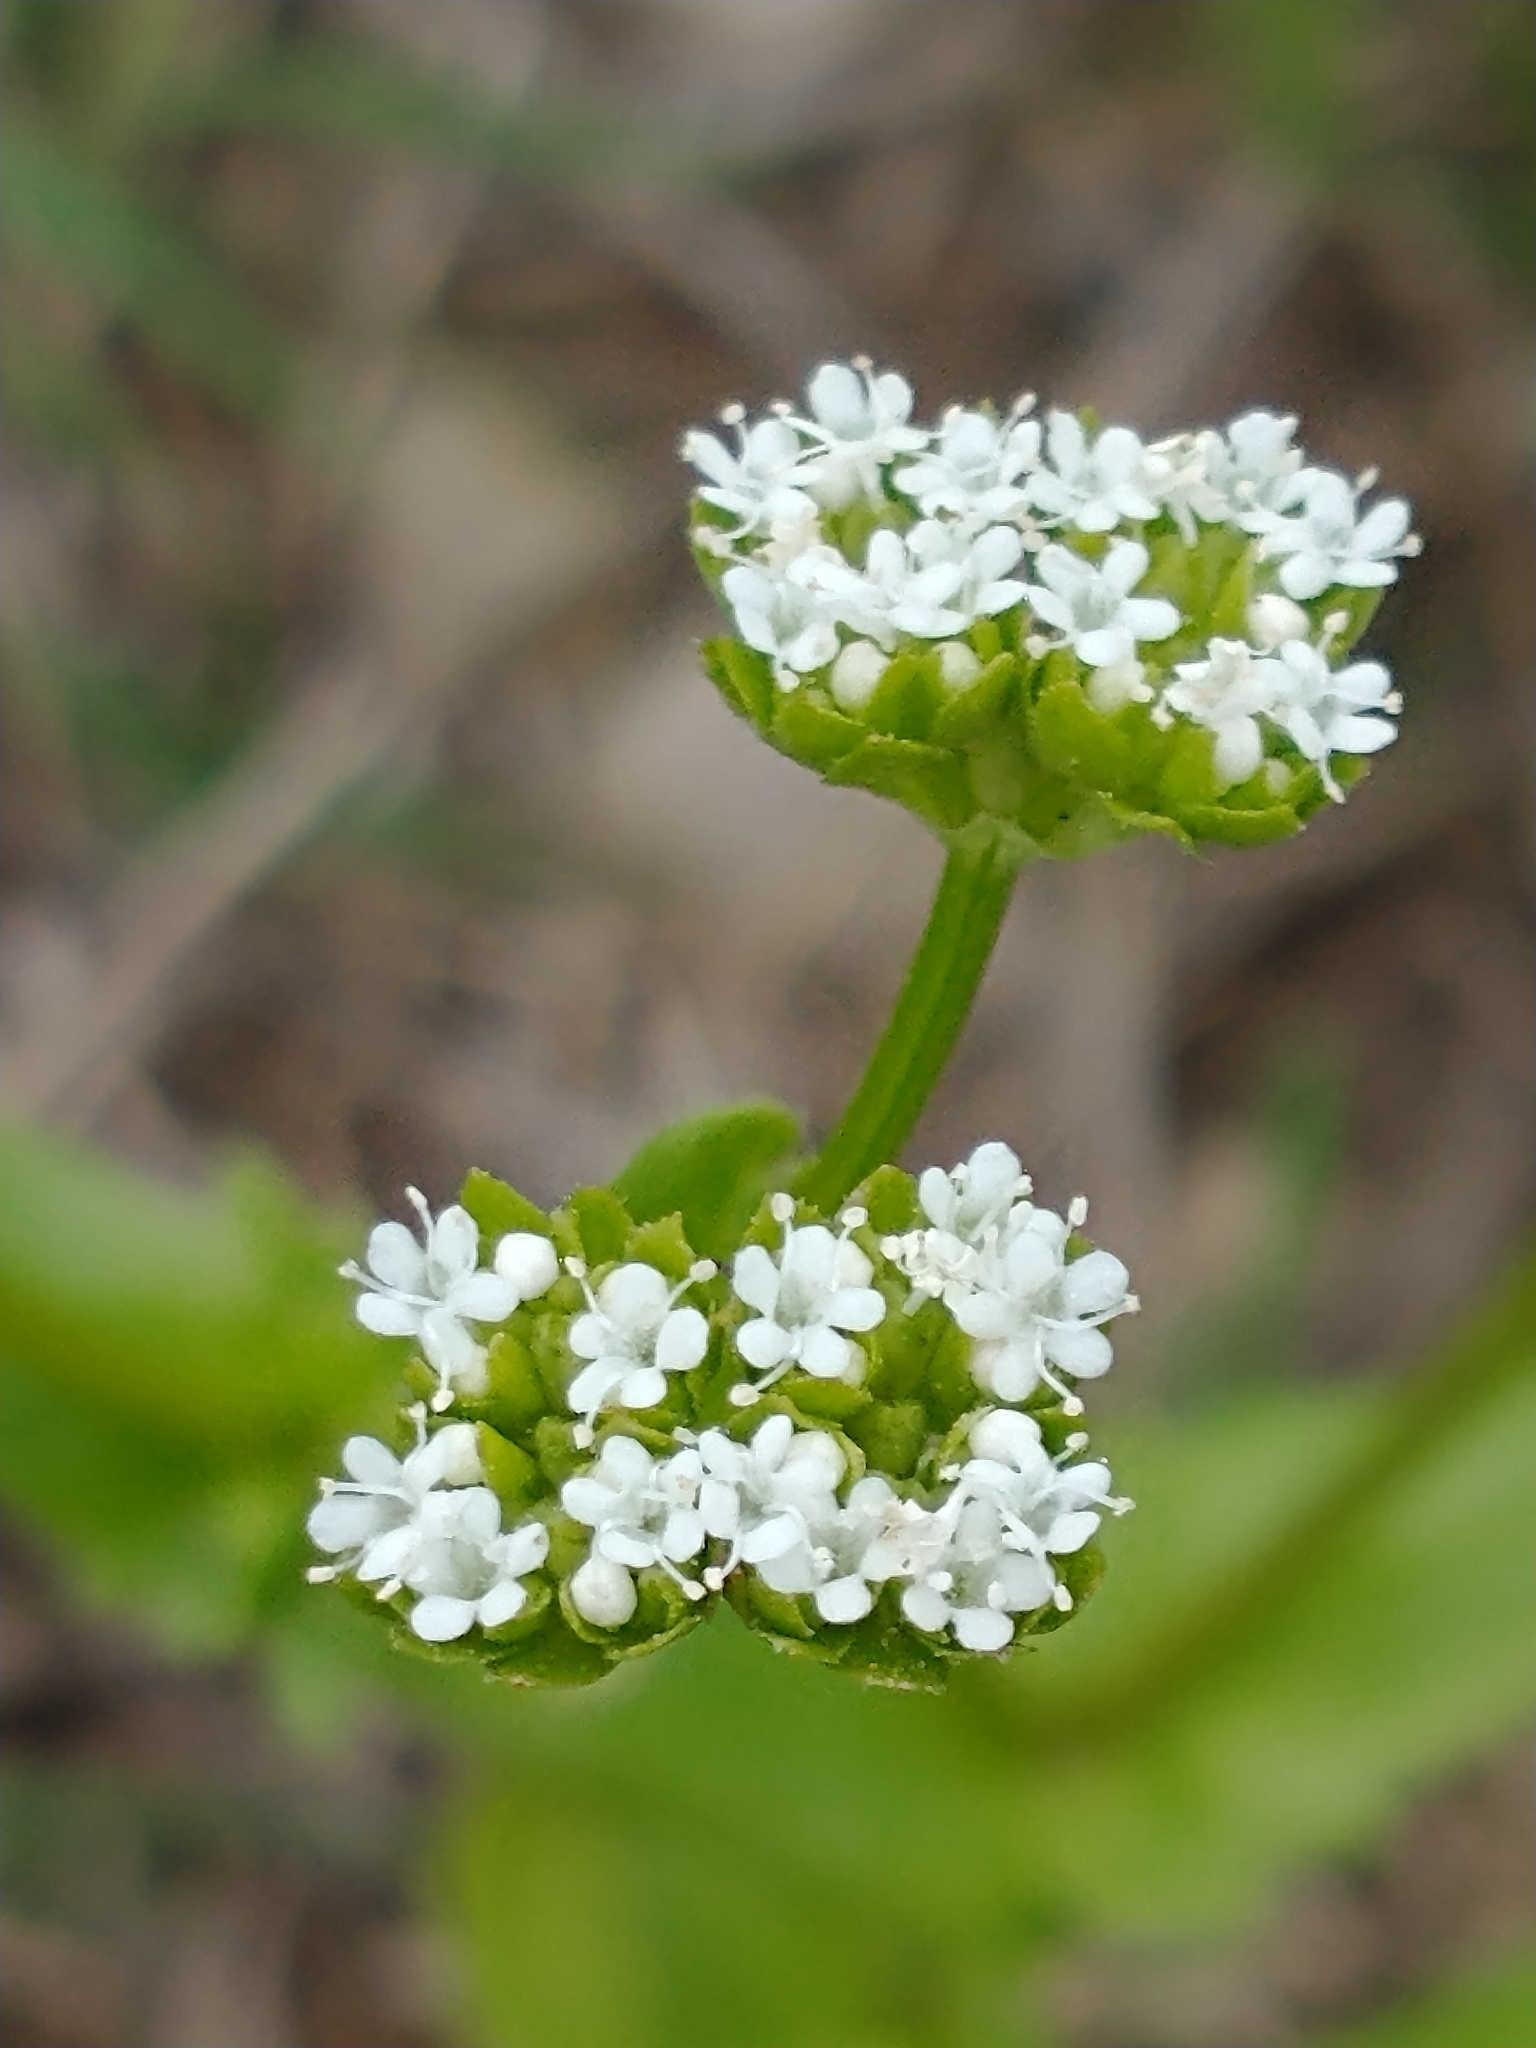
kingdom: Plantae
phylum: Tracheophyta
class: Magnoliopsida
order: Dipsacales
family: Caprifoliaceae
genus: Valerianella
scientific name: Valerianella radiata
